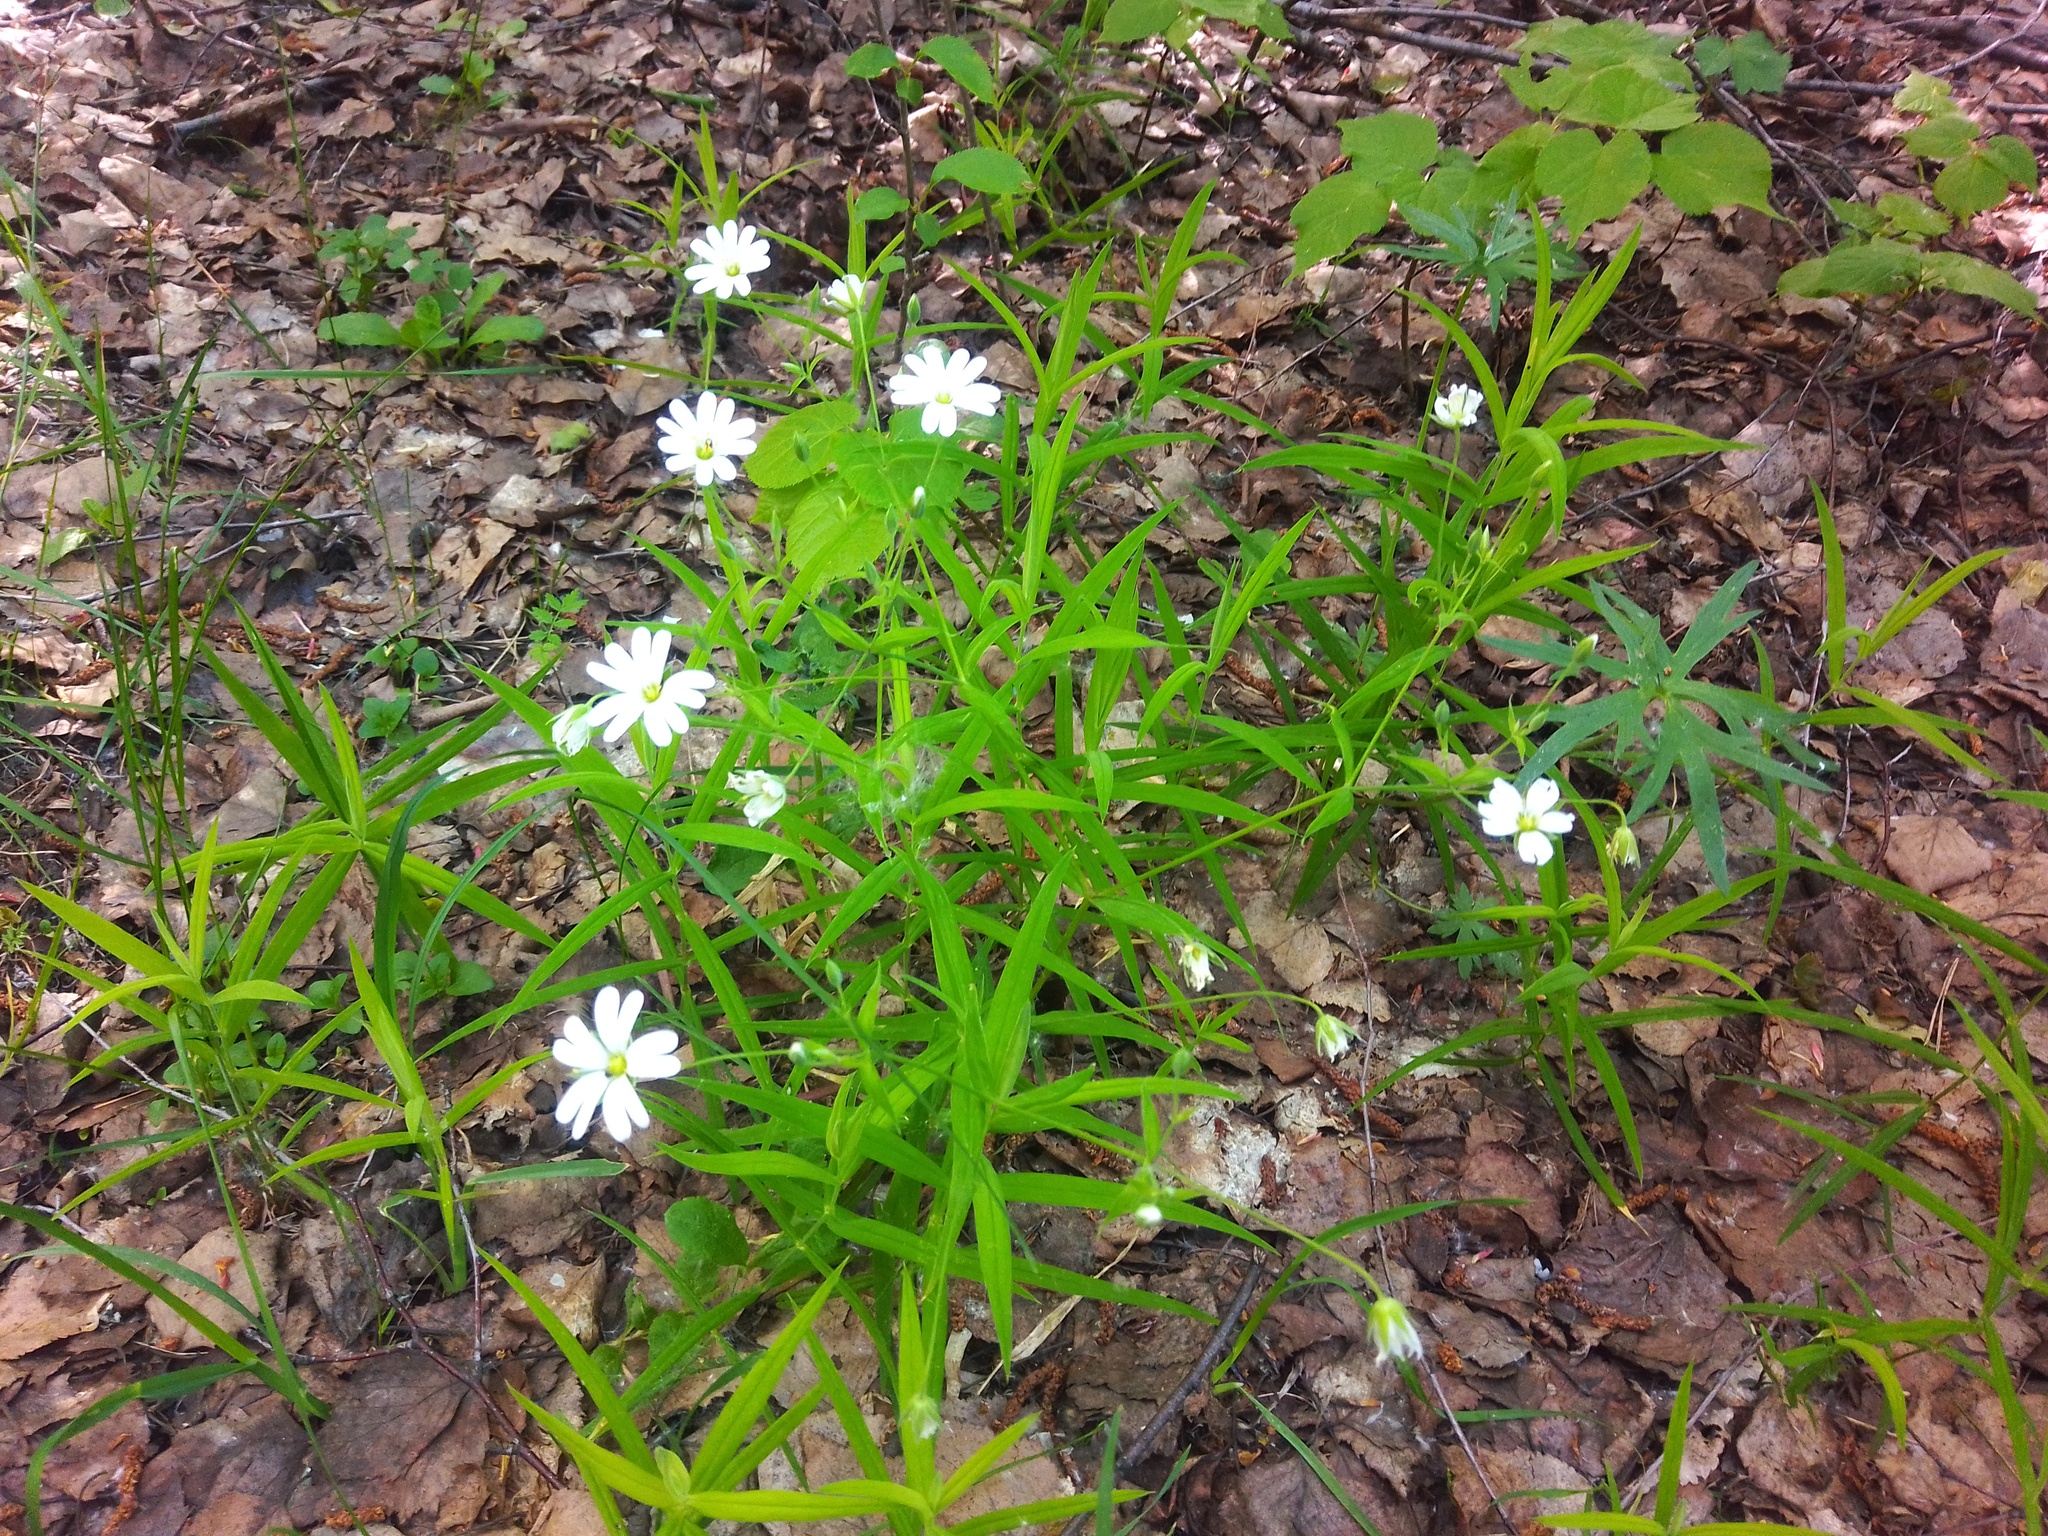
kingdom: Plantae
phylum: Tracheophyta
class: Magnoliopsida
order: Caryophyllales
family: Caryophyllaceae
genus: Rabelera
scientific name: Rabelera holostea
